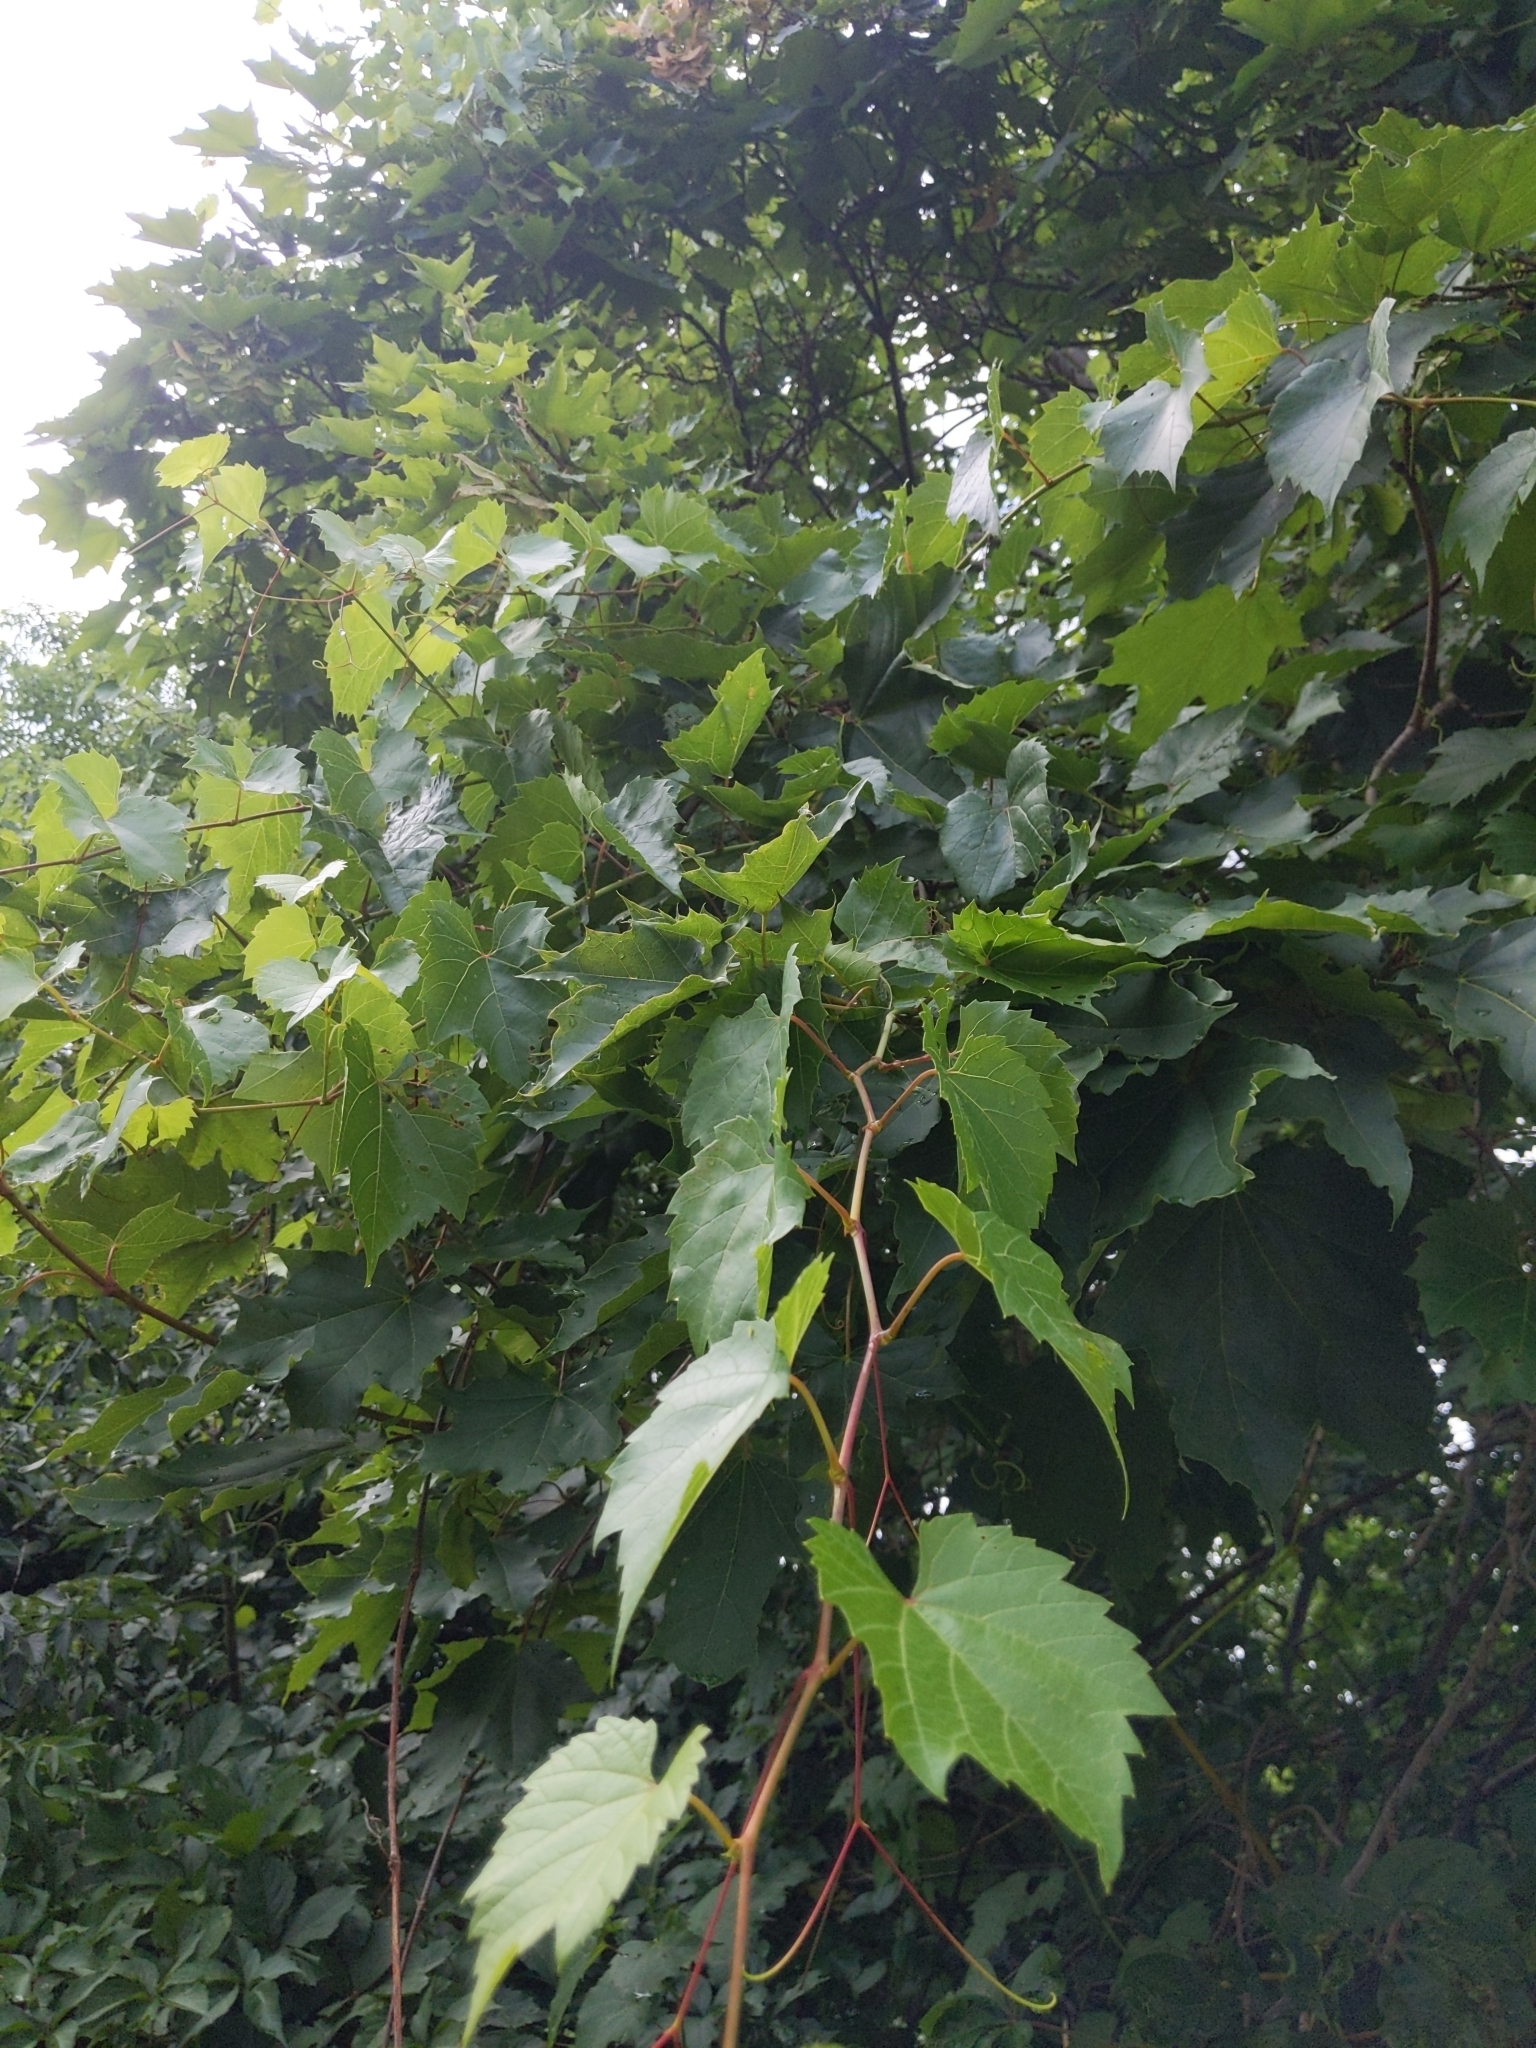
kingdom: Plantae
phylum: Tracheophyta
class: Magnoliopsida
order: Vitales
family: Vitaceae
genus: Vitis
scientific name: Vitis riparia
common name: Frost grape
